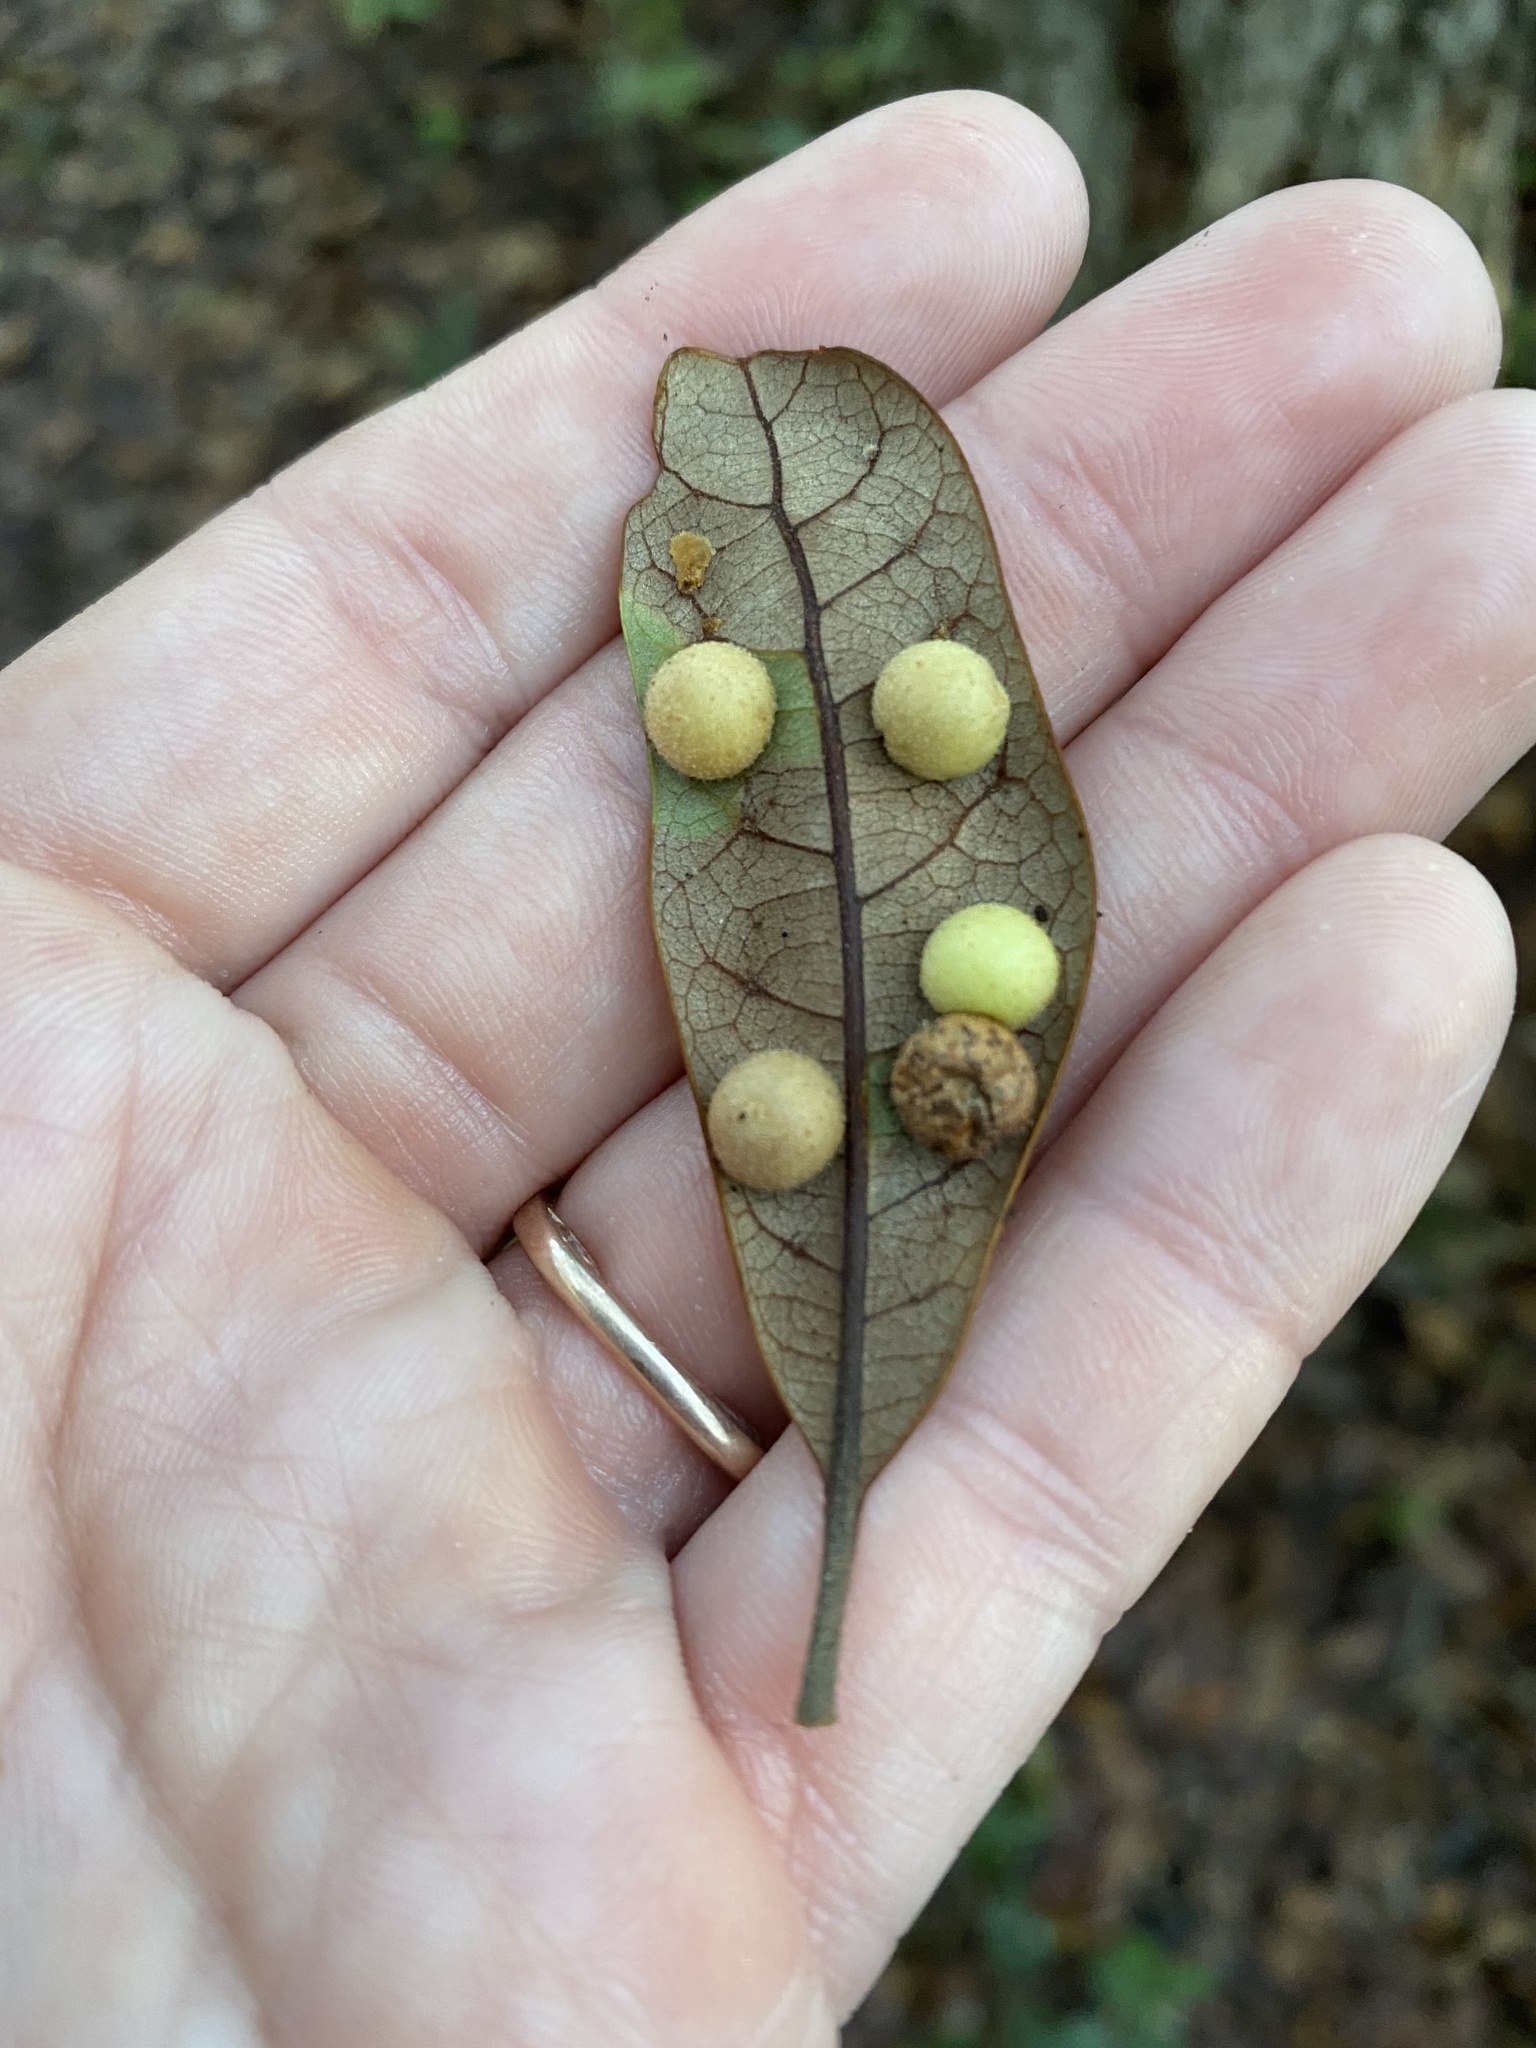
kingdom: Animalia
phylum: Arthropoda
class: Insecta
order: Hymenoptera
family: Cynipidae
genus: Belonocnema
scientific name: Belonocnema treatae
